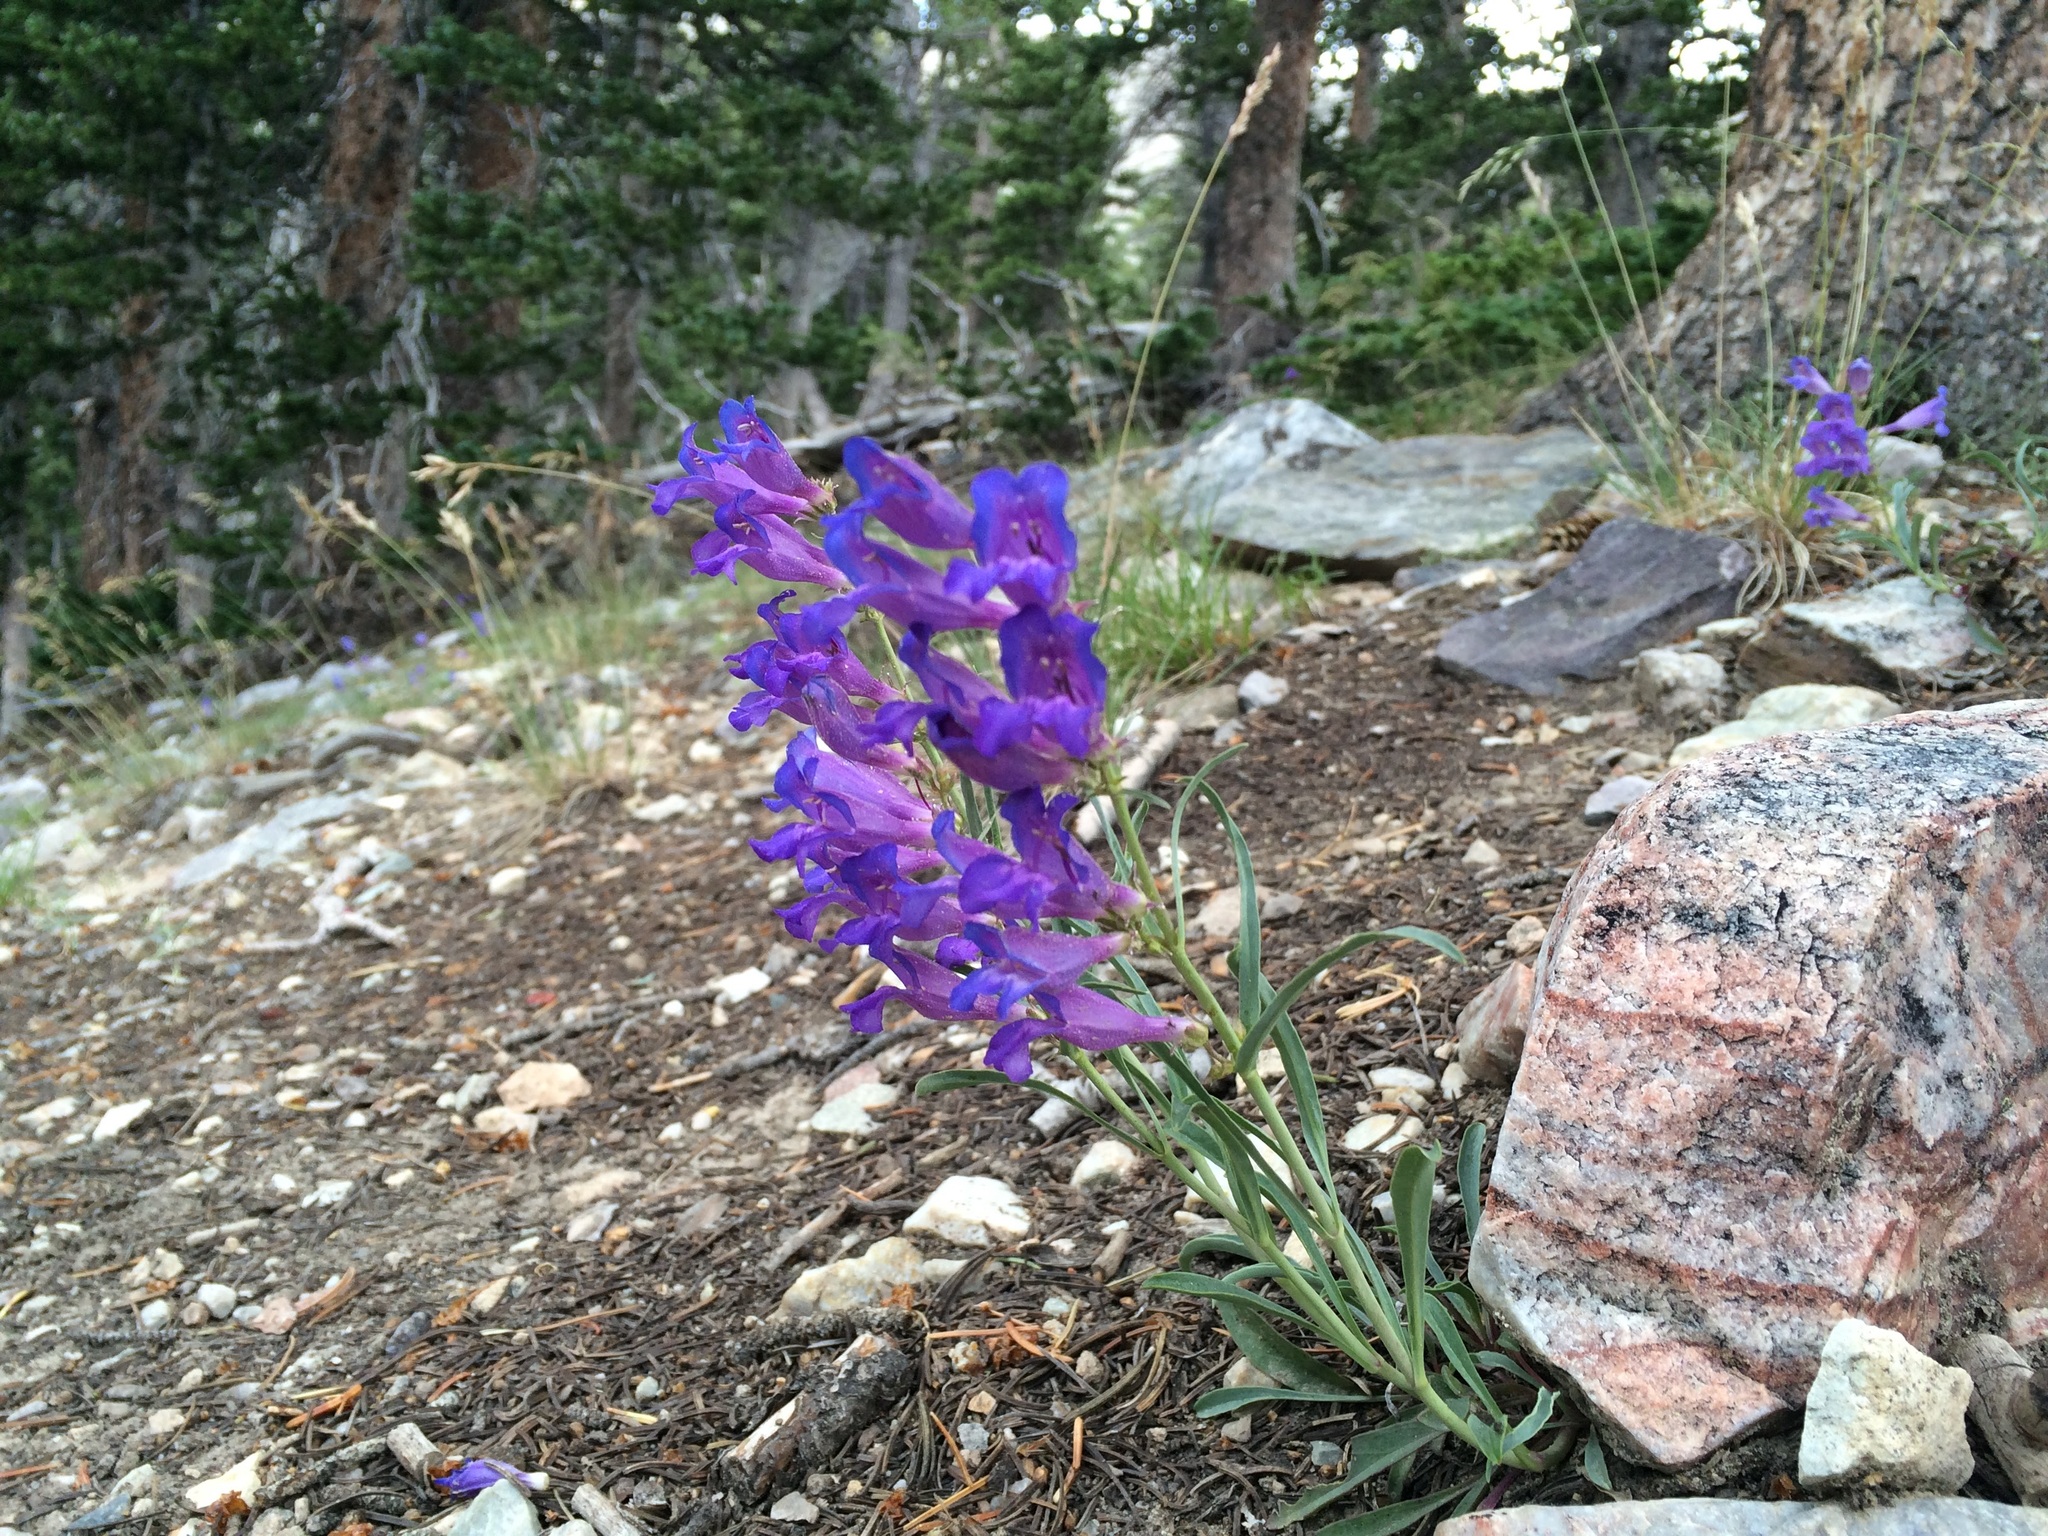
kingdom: Plantae
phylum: Tracheophyta
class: Magnoliopsida
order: Lamiales
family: Plantaginaceae
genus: Penstemon
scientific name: Penstemon speciosus
